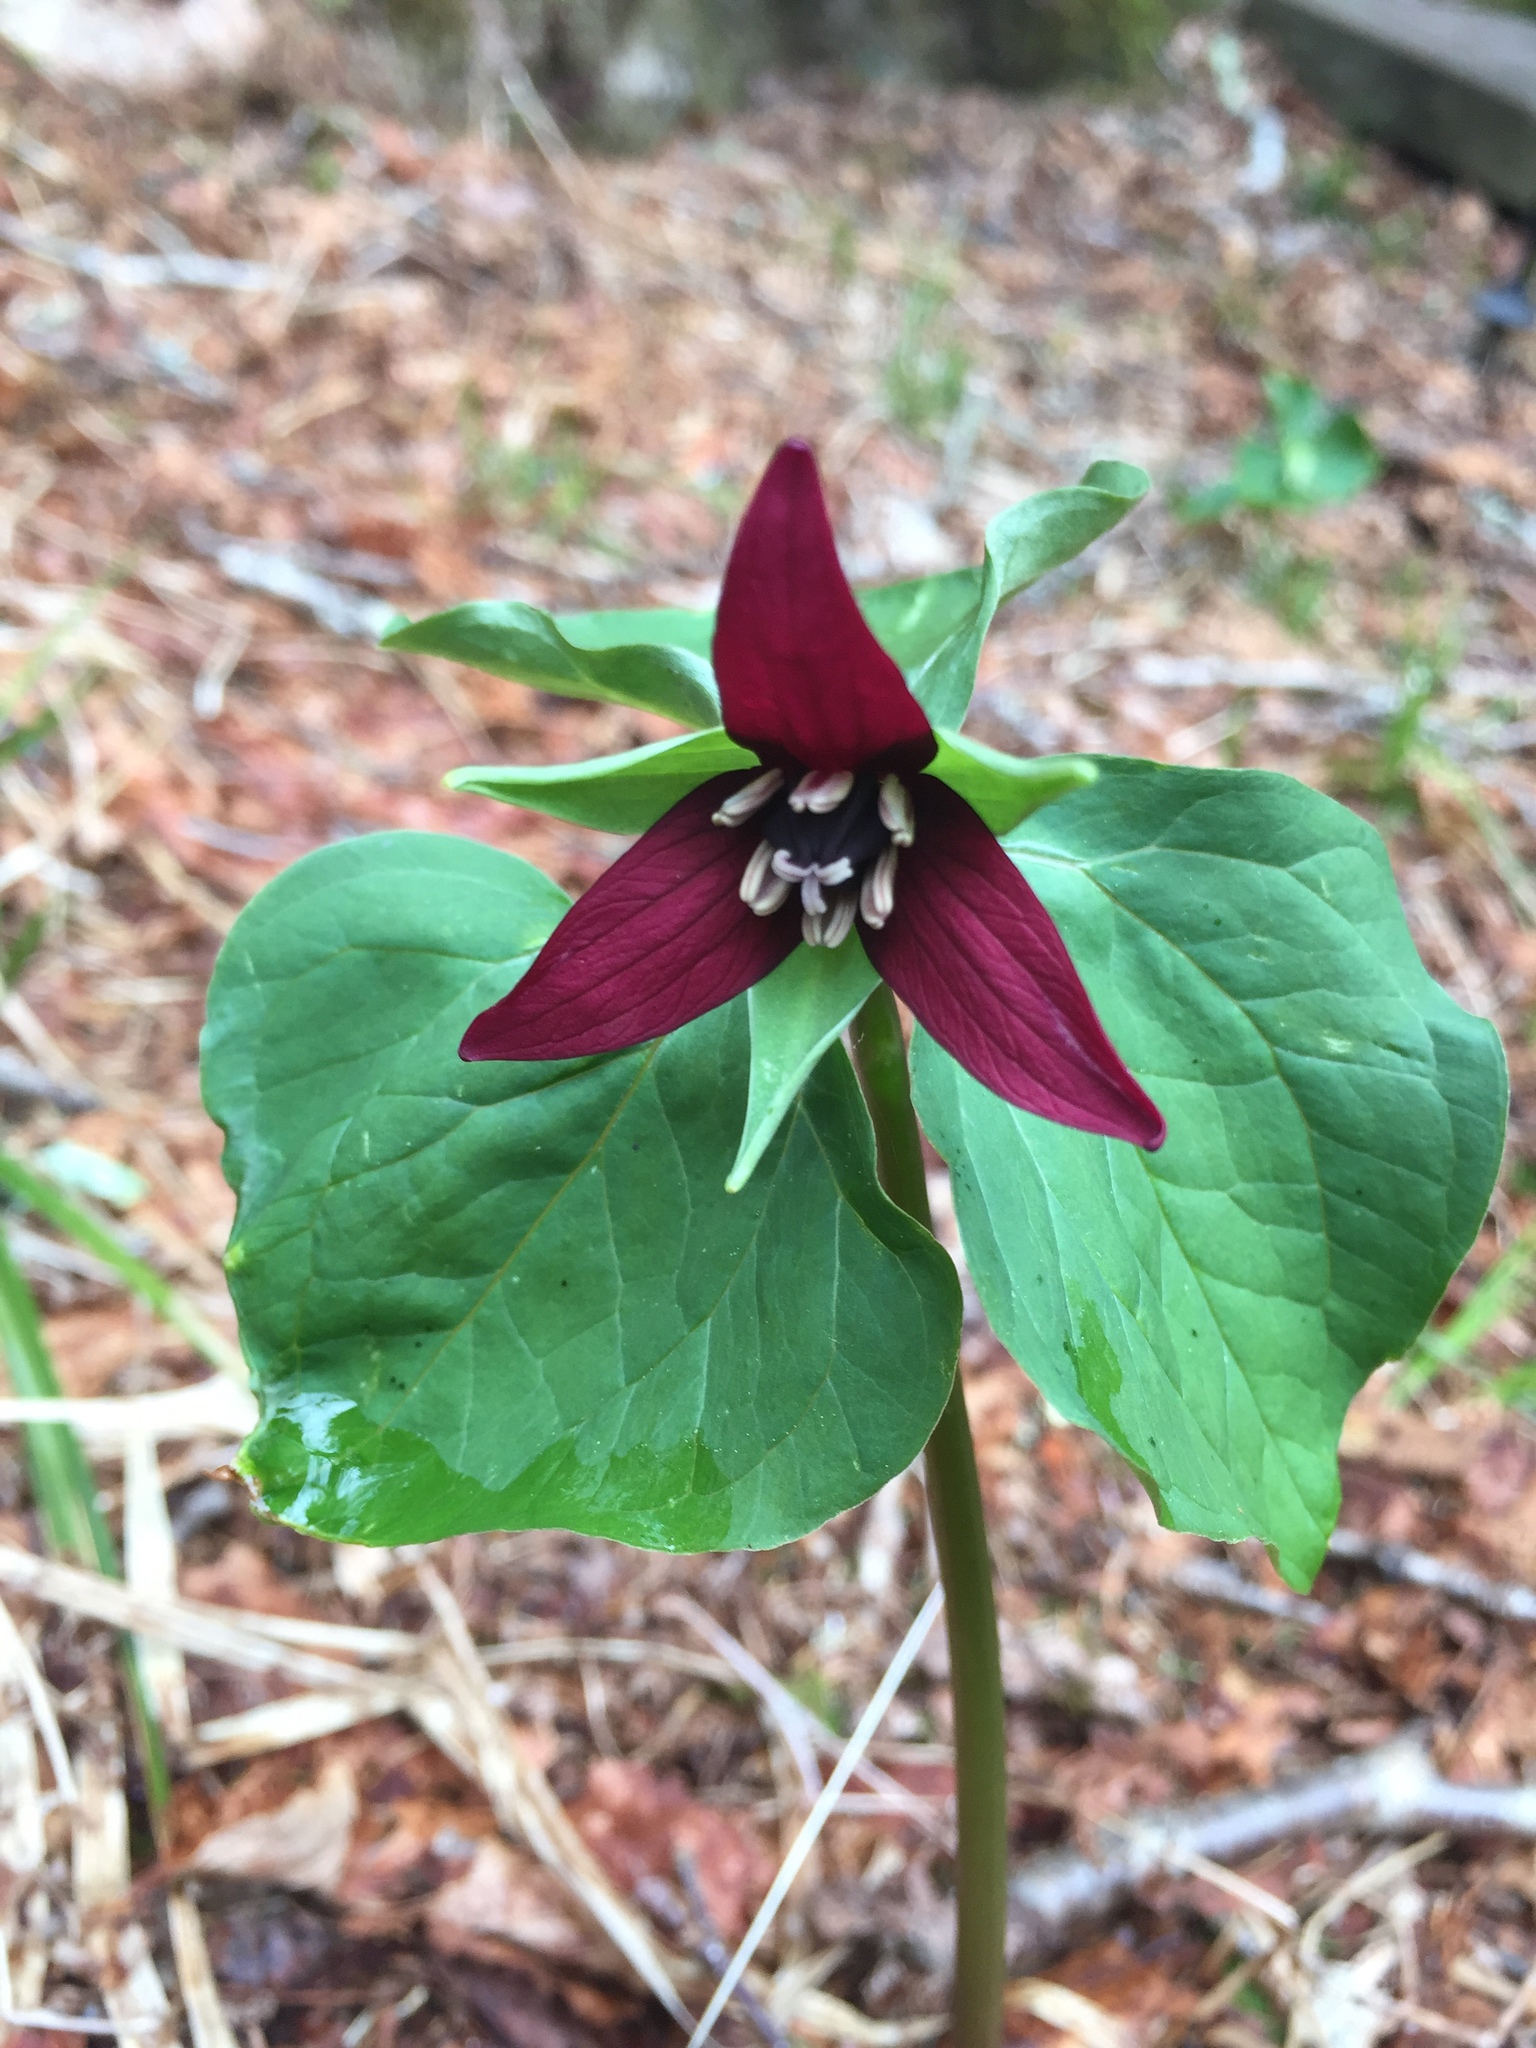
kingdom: Plantae
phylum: Tracheophyta
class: Liliopsida
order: Liliales
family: Melanthiaceae
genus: Trillium
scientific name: Trillium erectum
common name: Purple trillium
